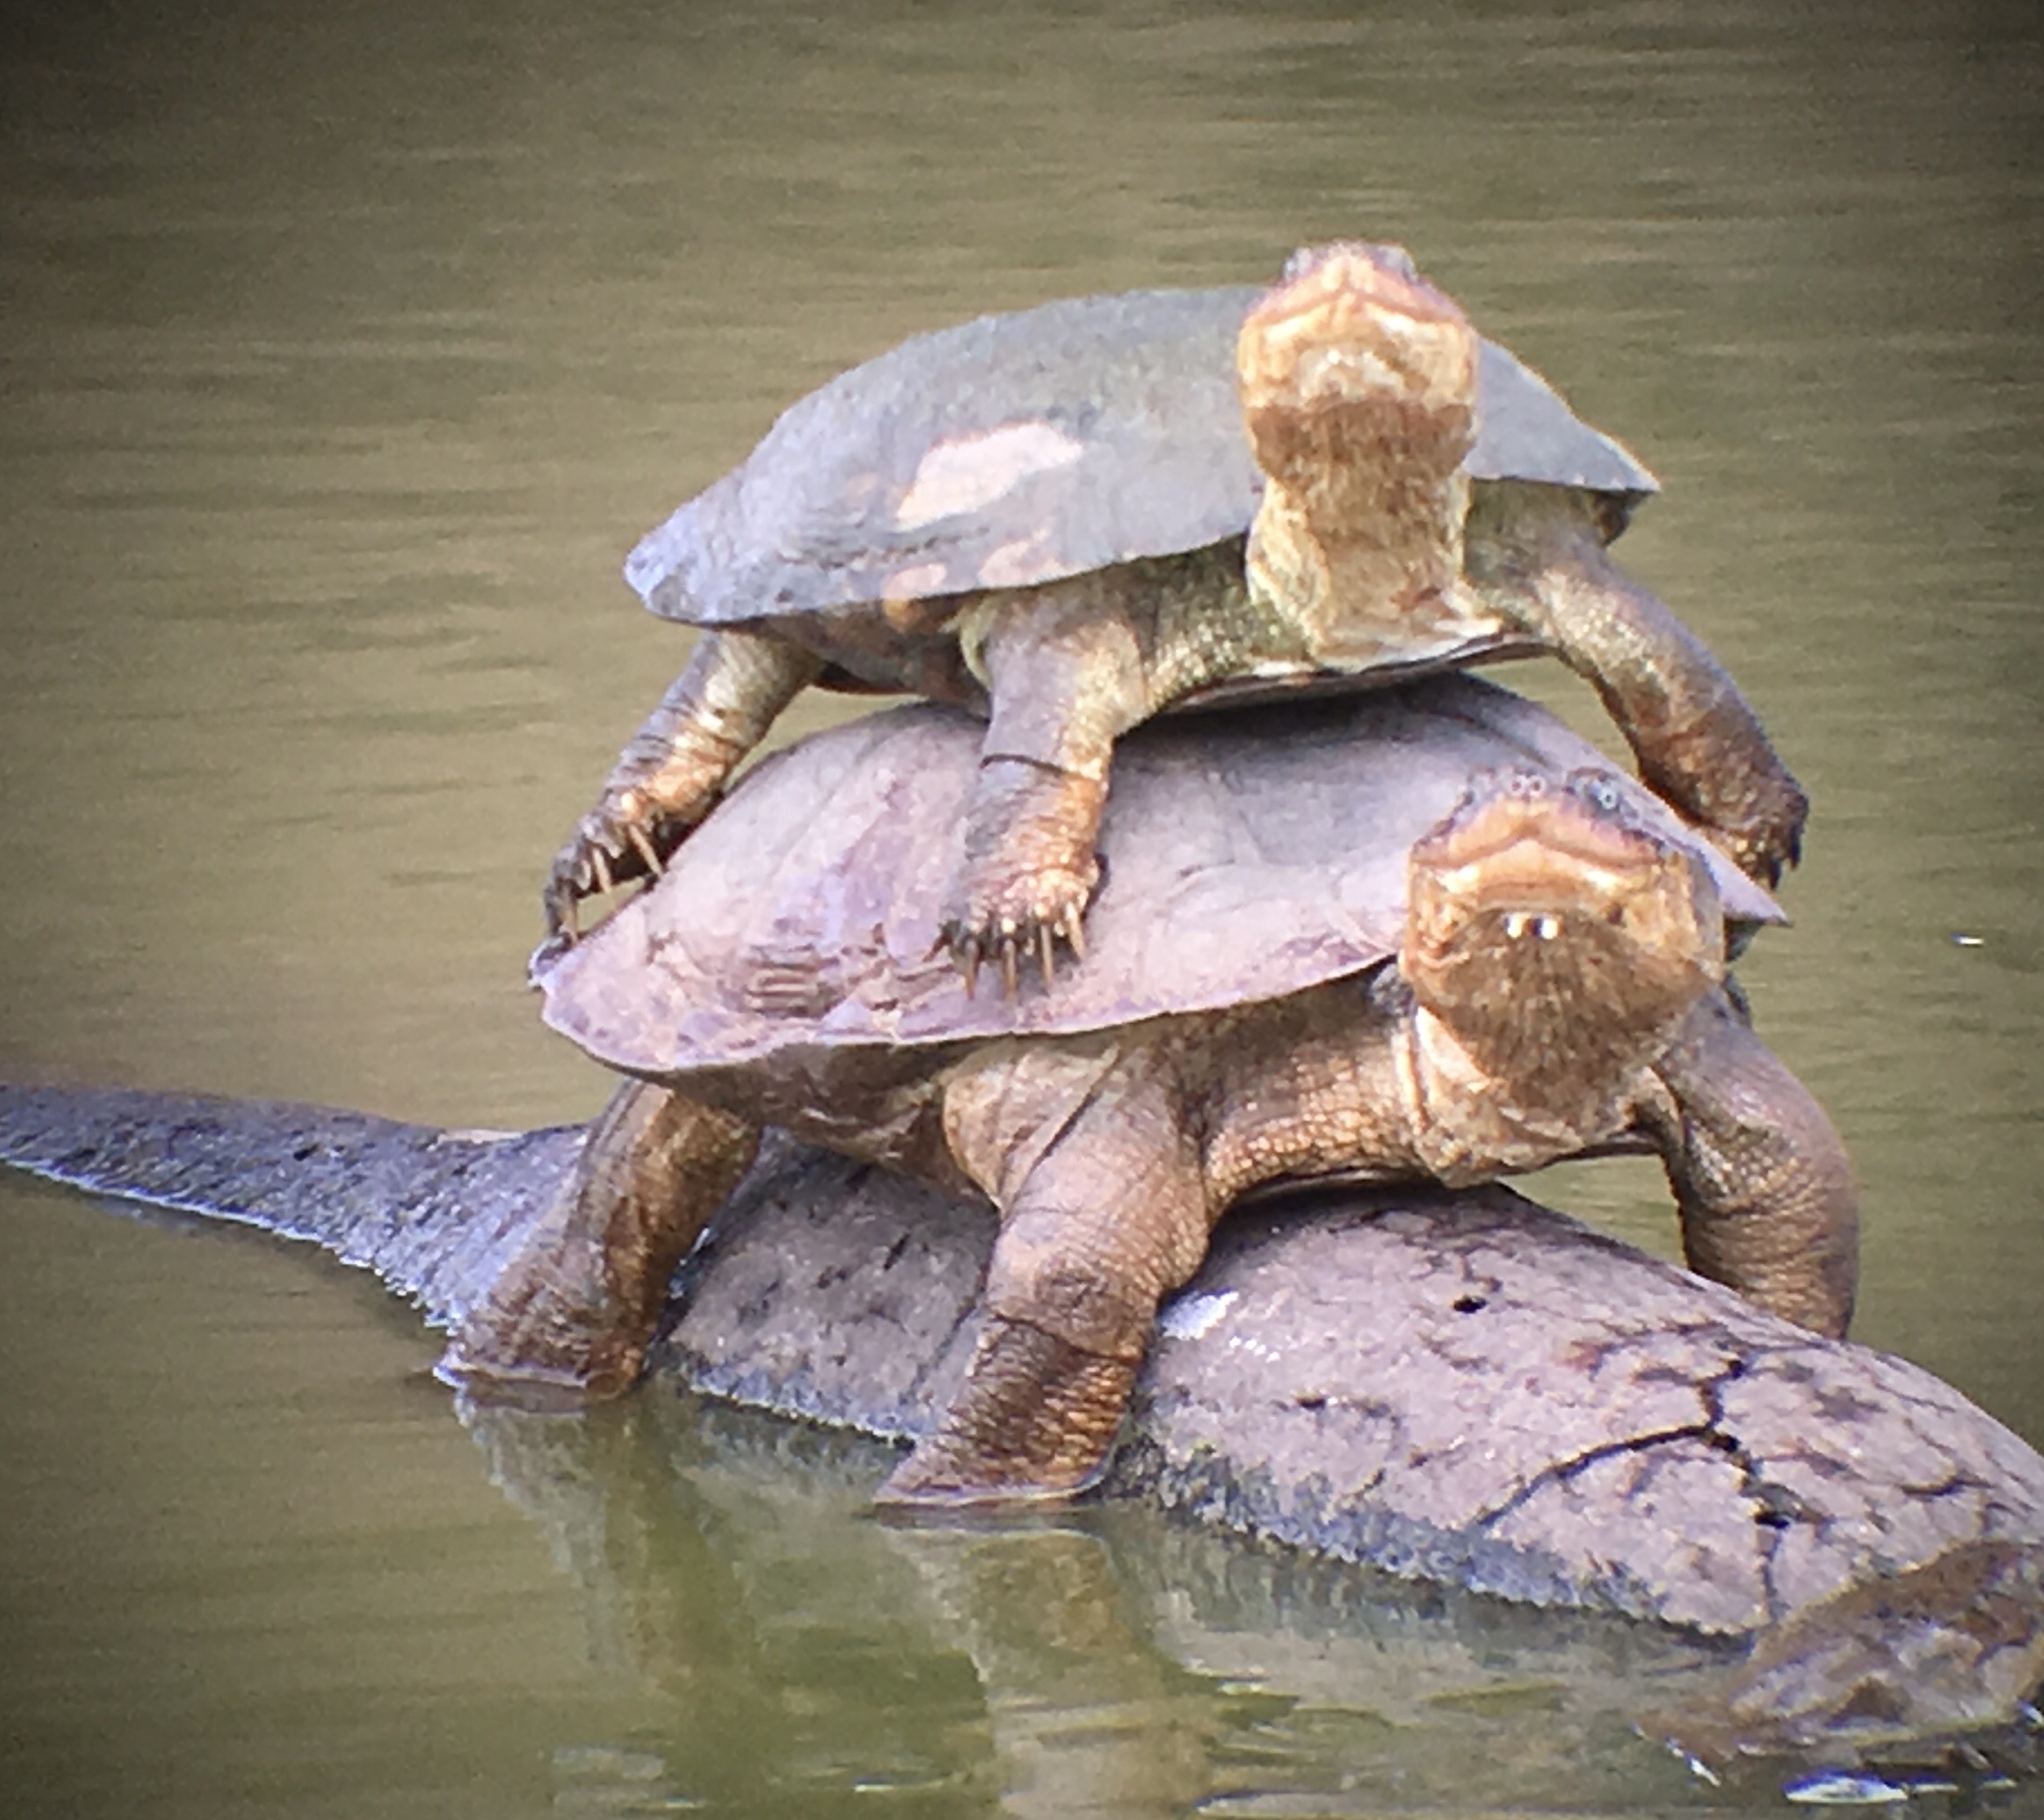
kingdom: Animalia
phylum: Chordata
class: Testudines
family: Pelomedusidae
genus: Pelomedusa
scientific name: Pelomedusa galeata
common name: South african helmeted terrapin
